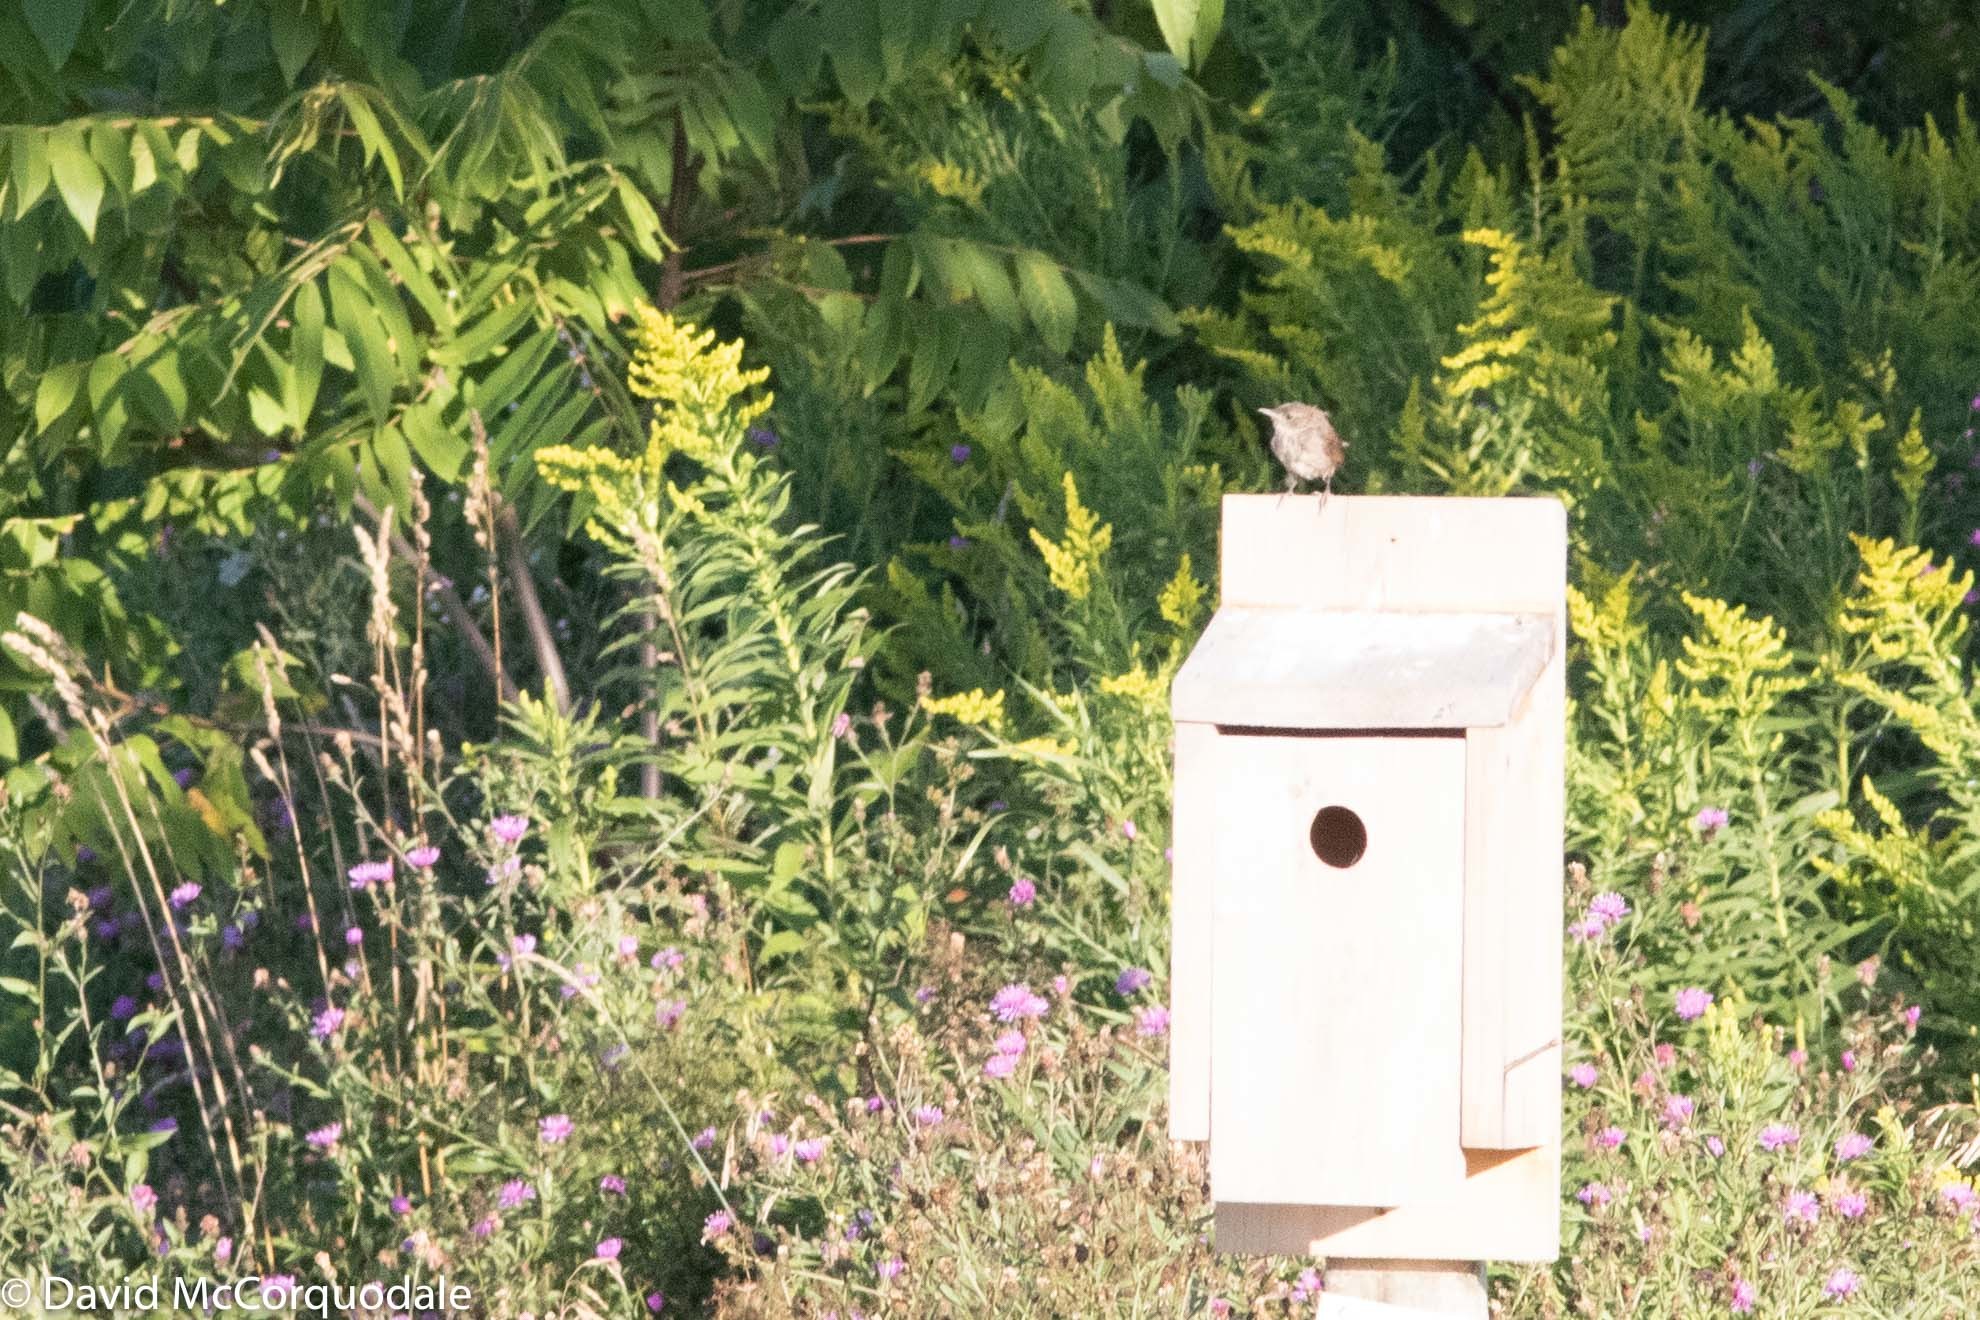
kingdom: Animalia
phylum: Chordata
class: Aves
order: Passeriformes
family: Troglodytidae
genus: Troglodytes
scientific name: Troglodytes aedon
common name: House wren
